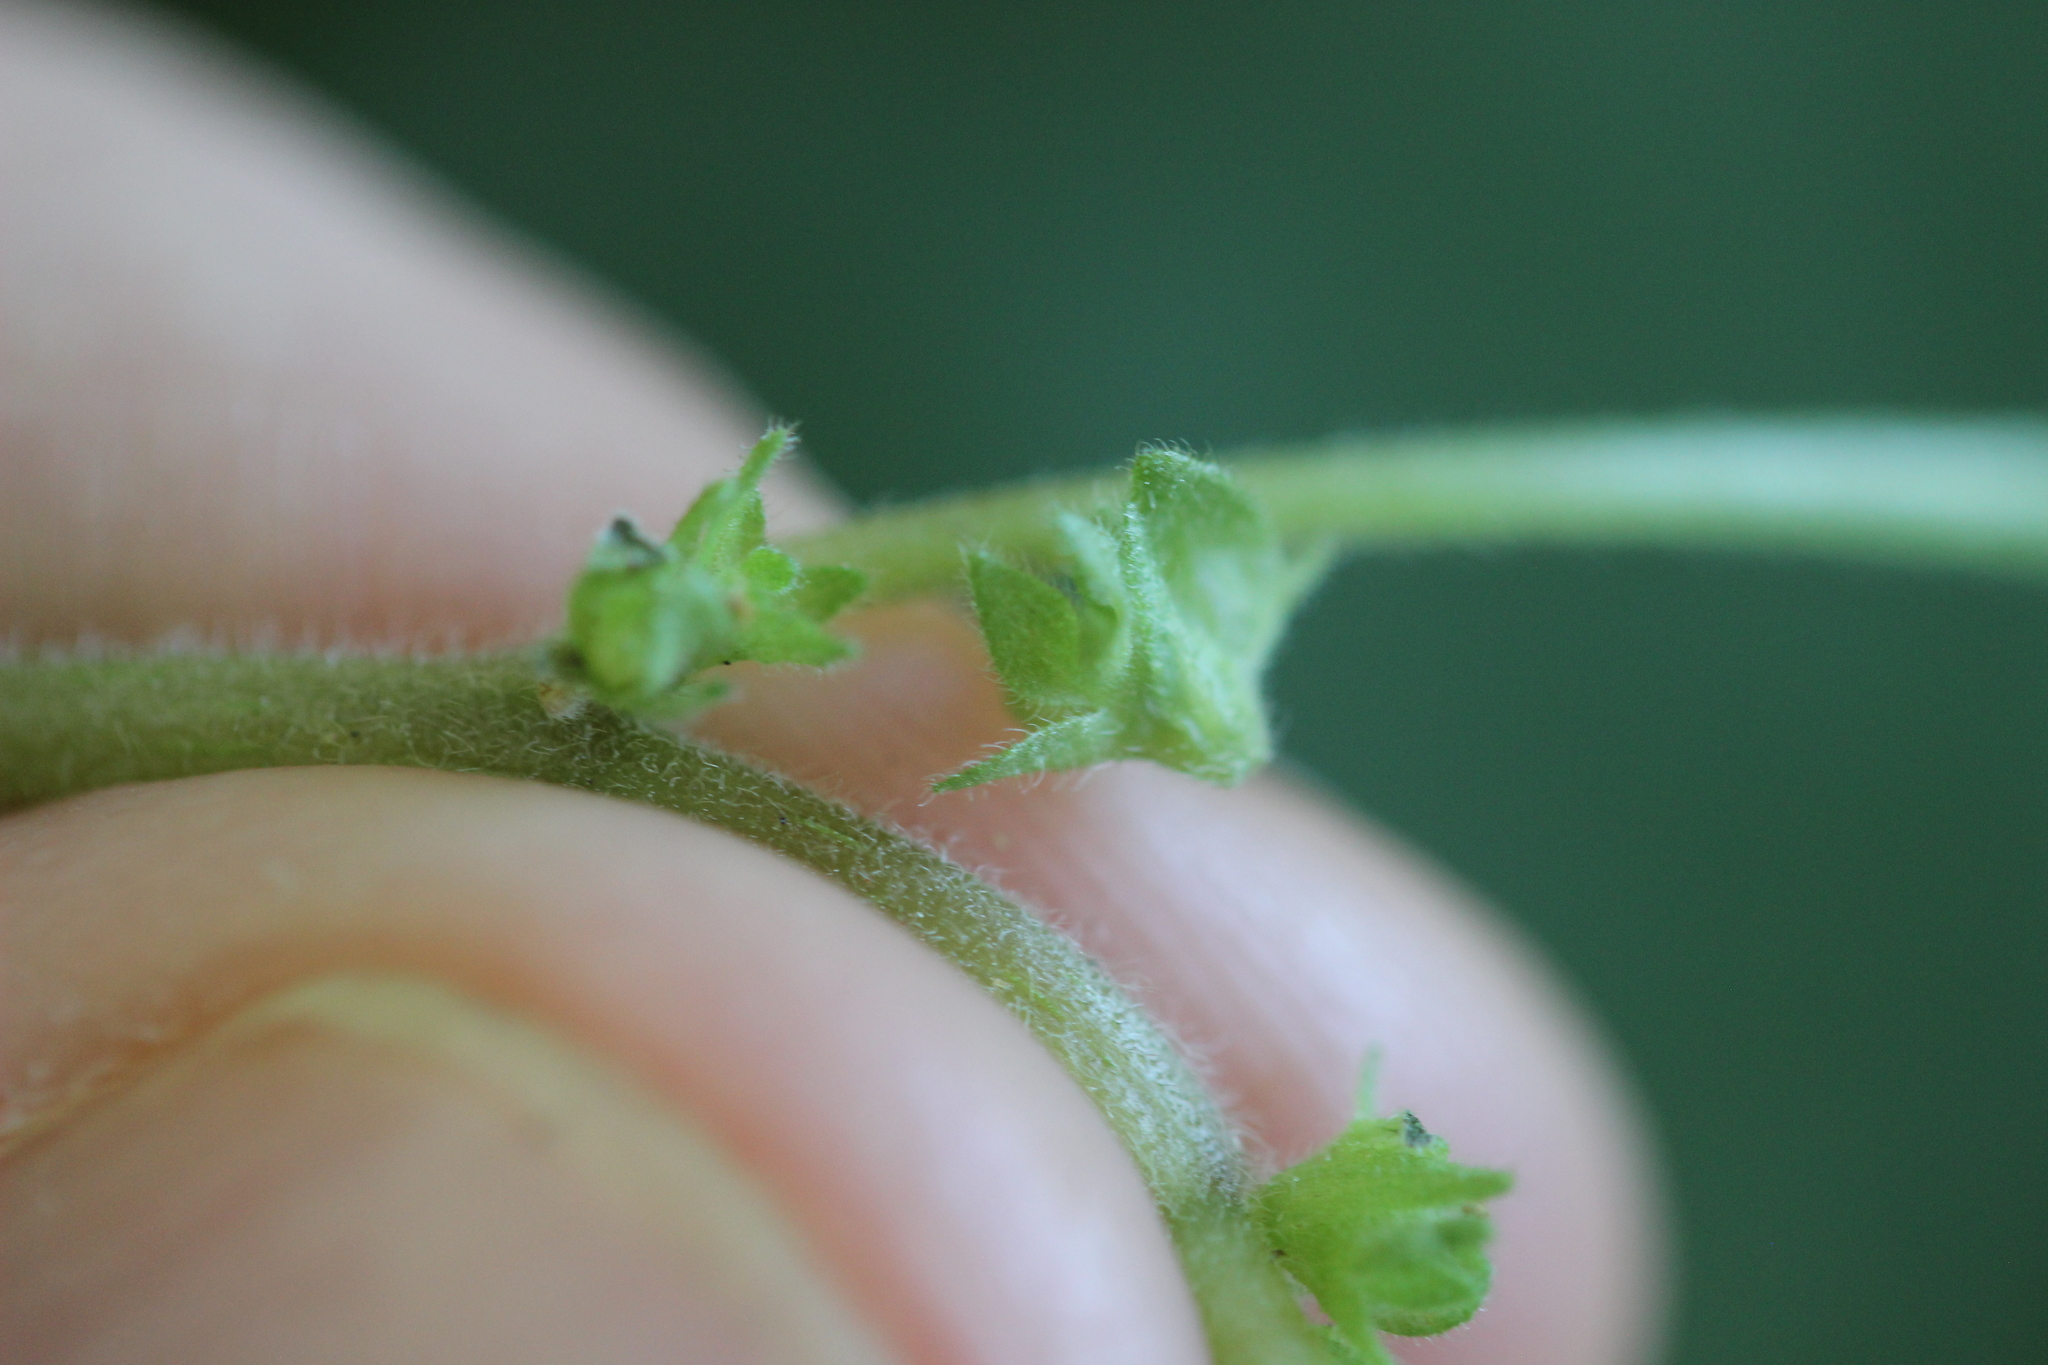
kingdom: Plantae
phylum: Tracheophyta
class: Magnoliopsida
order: Rosales
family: Urticaceae
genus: Parietaria
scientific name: Parietaria judaica
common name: Pellitory-of-the-wall
